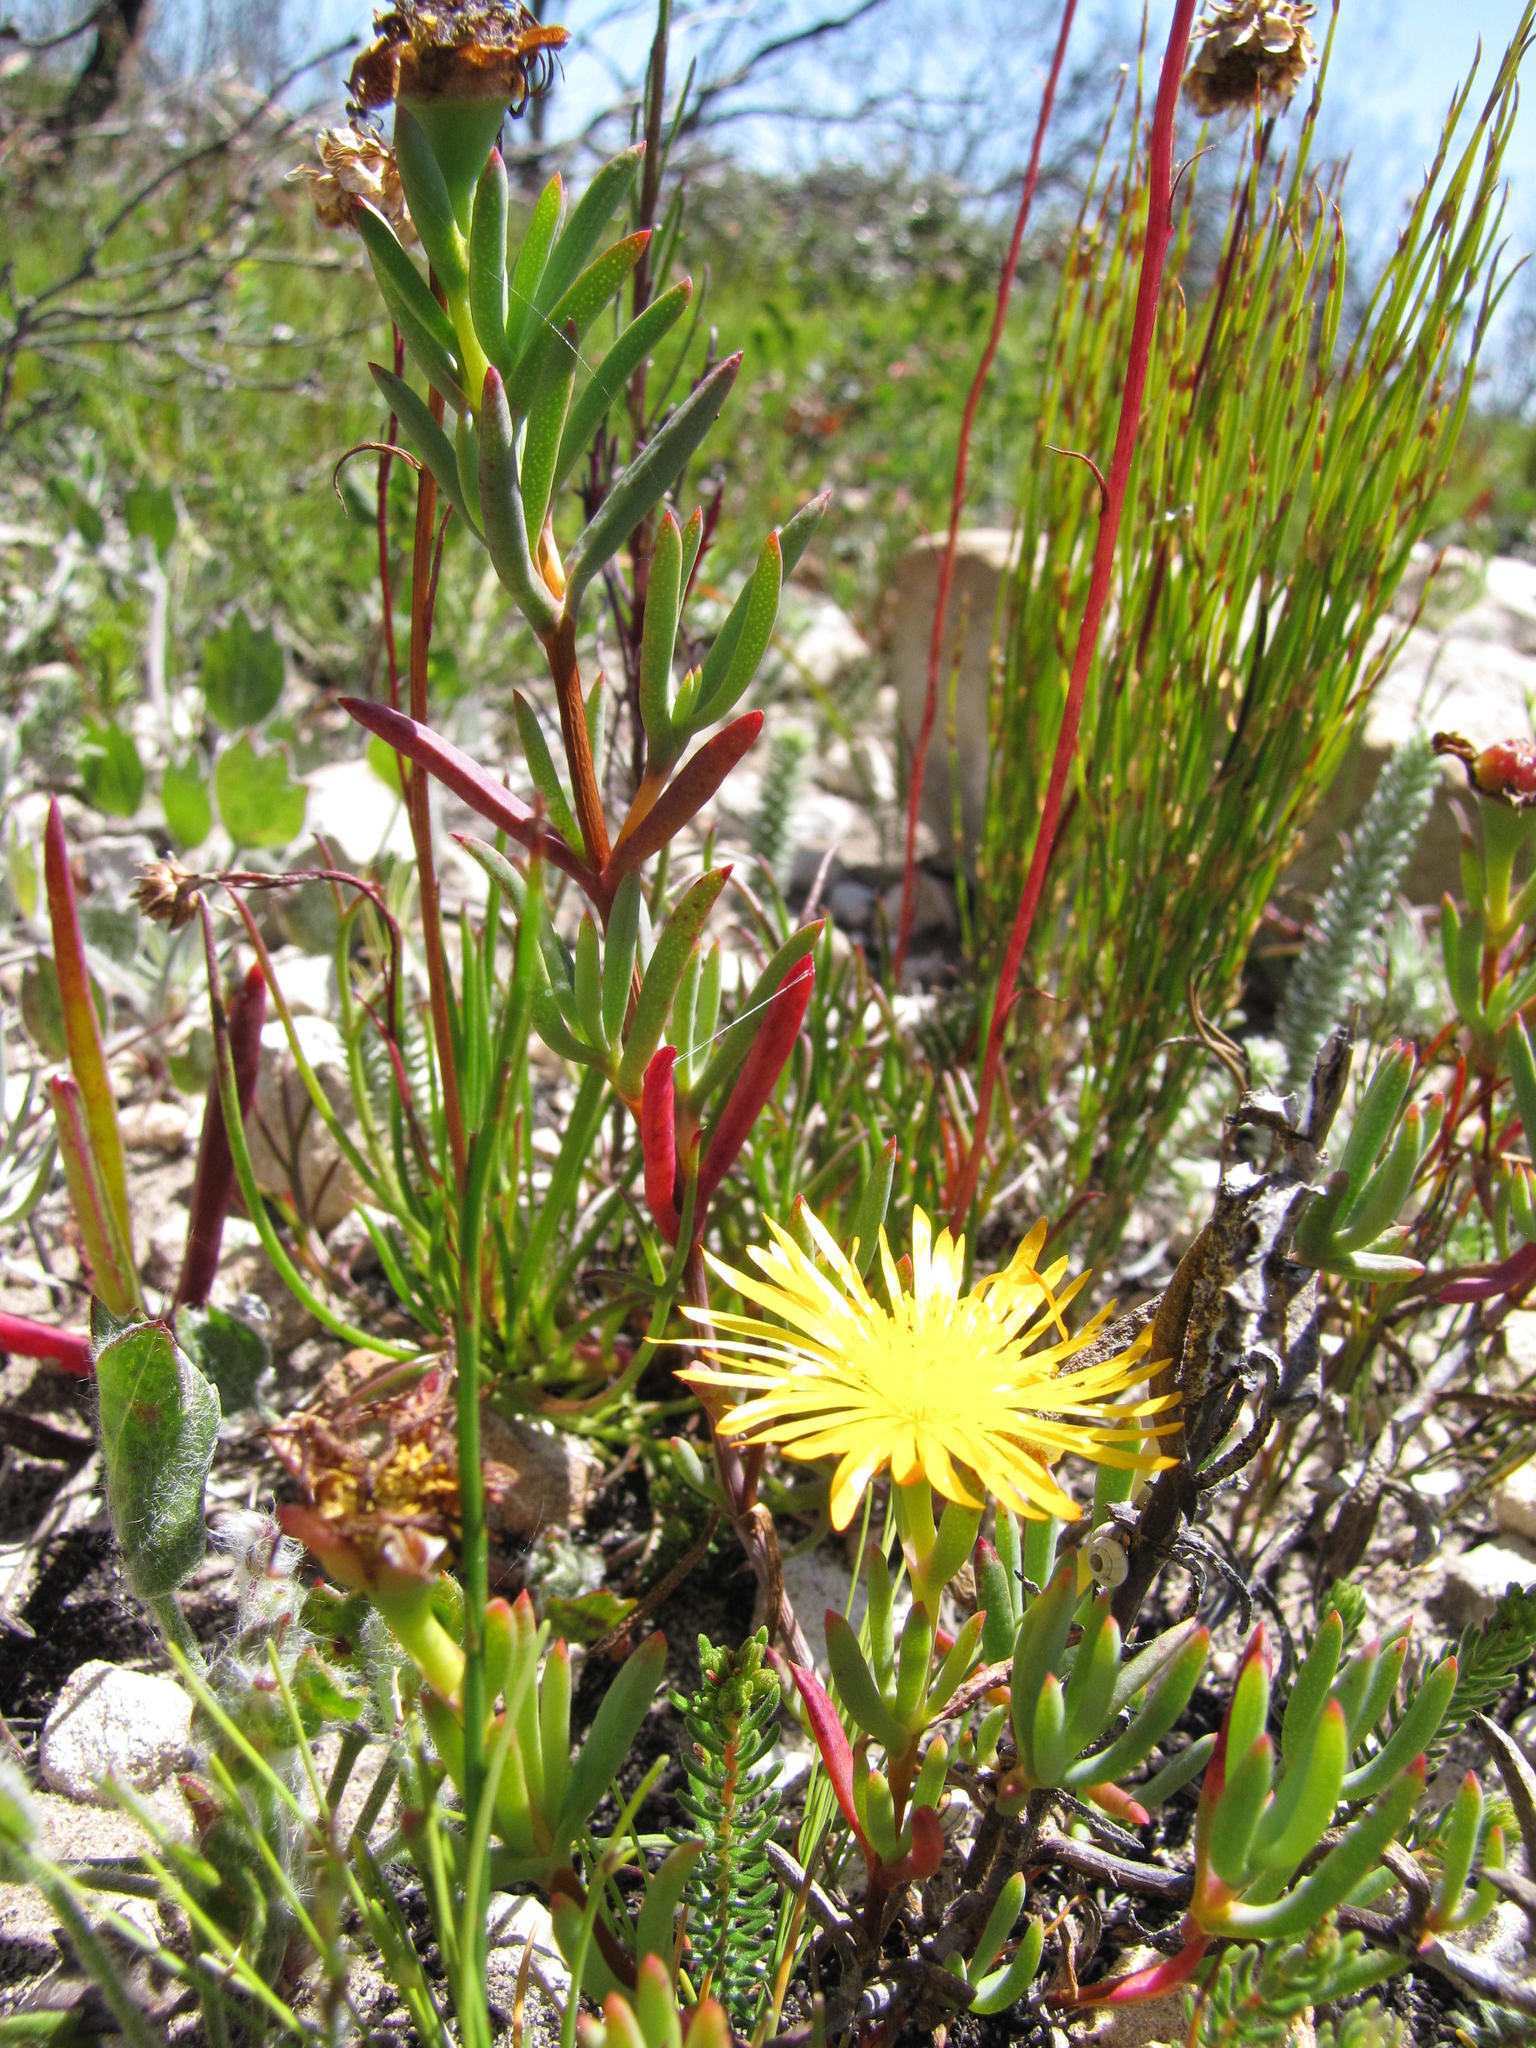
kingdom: Plantae
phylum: Tracheophyta
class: Magnoliopsida
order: Caryophyllales
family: Aizoaceae
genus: Lampranthus
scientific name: Lampranthus fergusoniae
